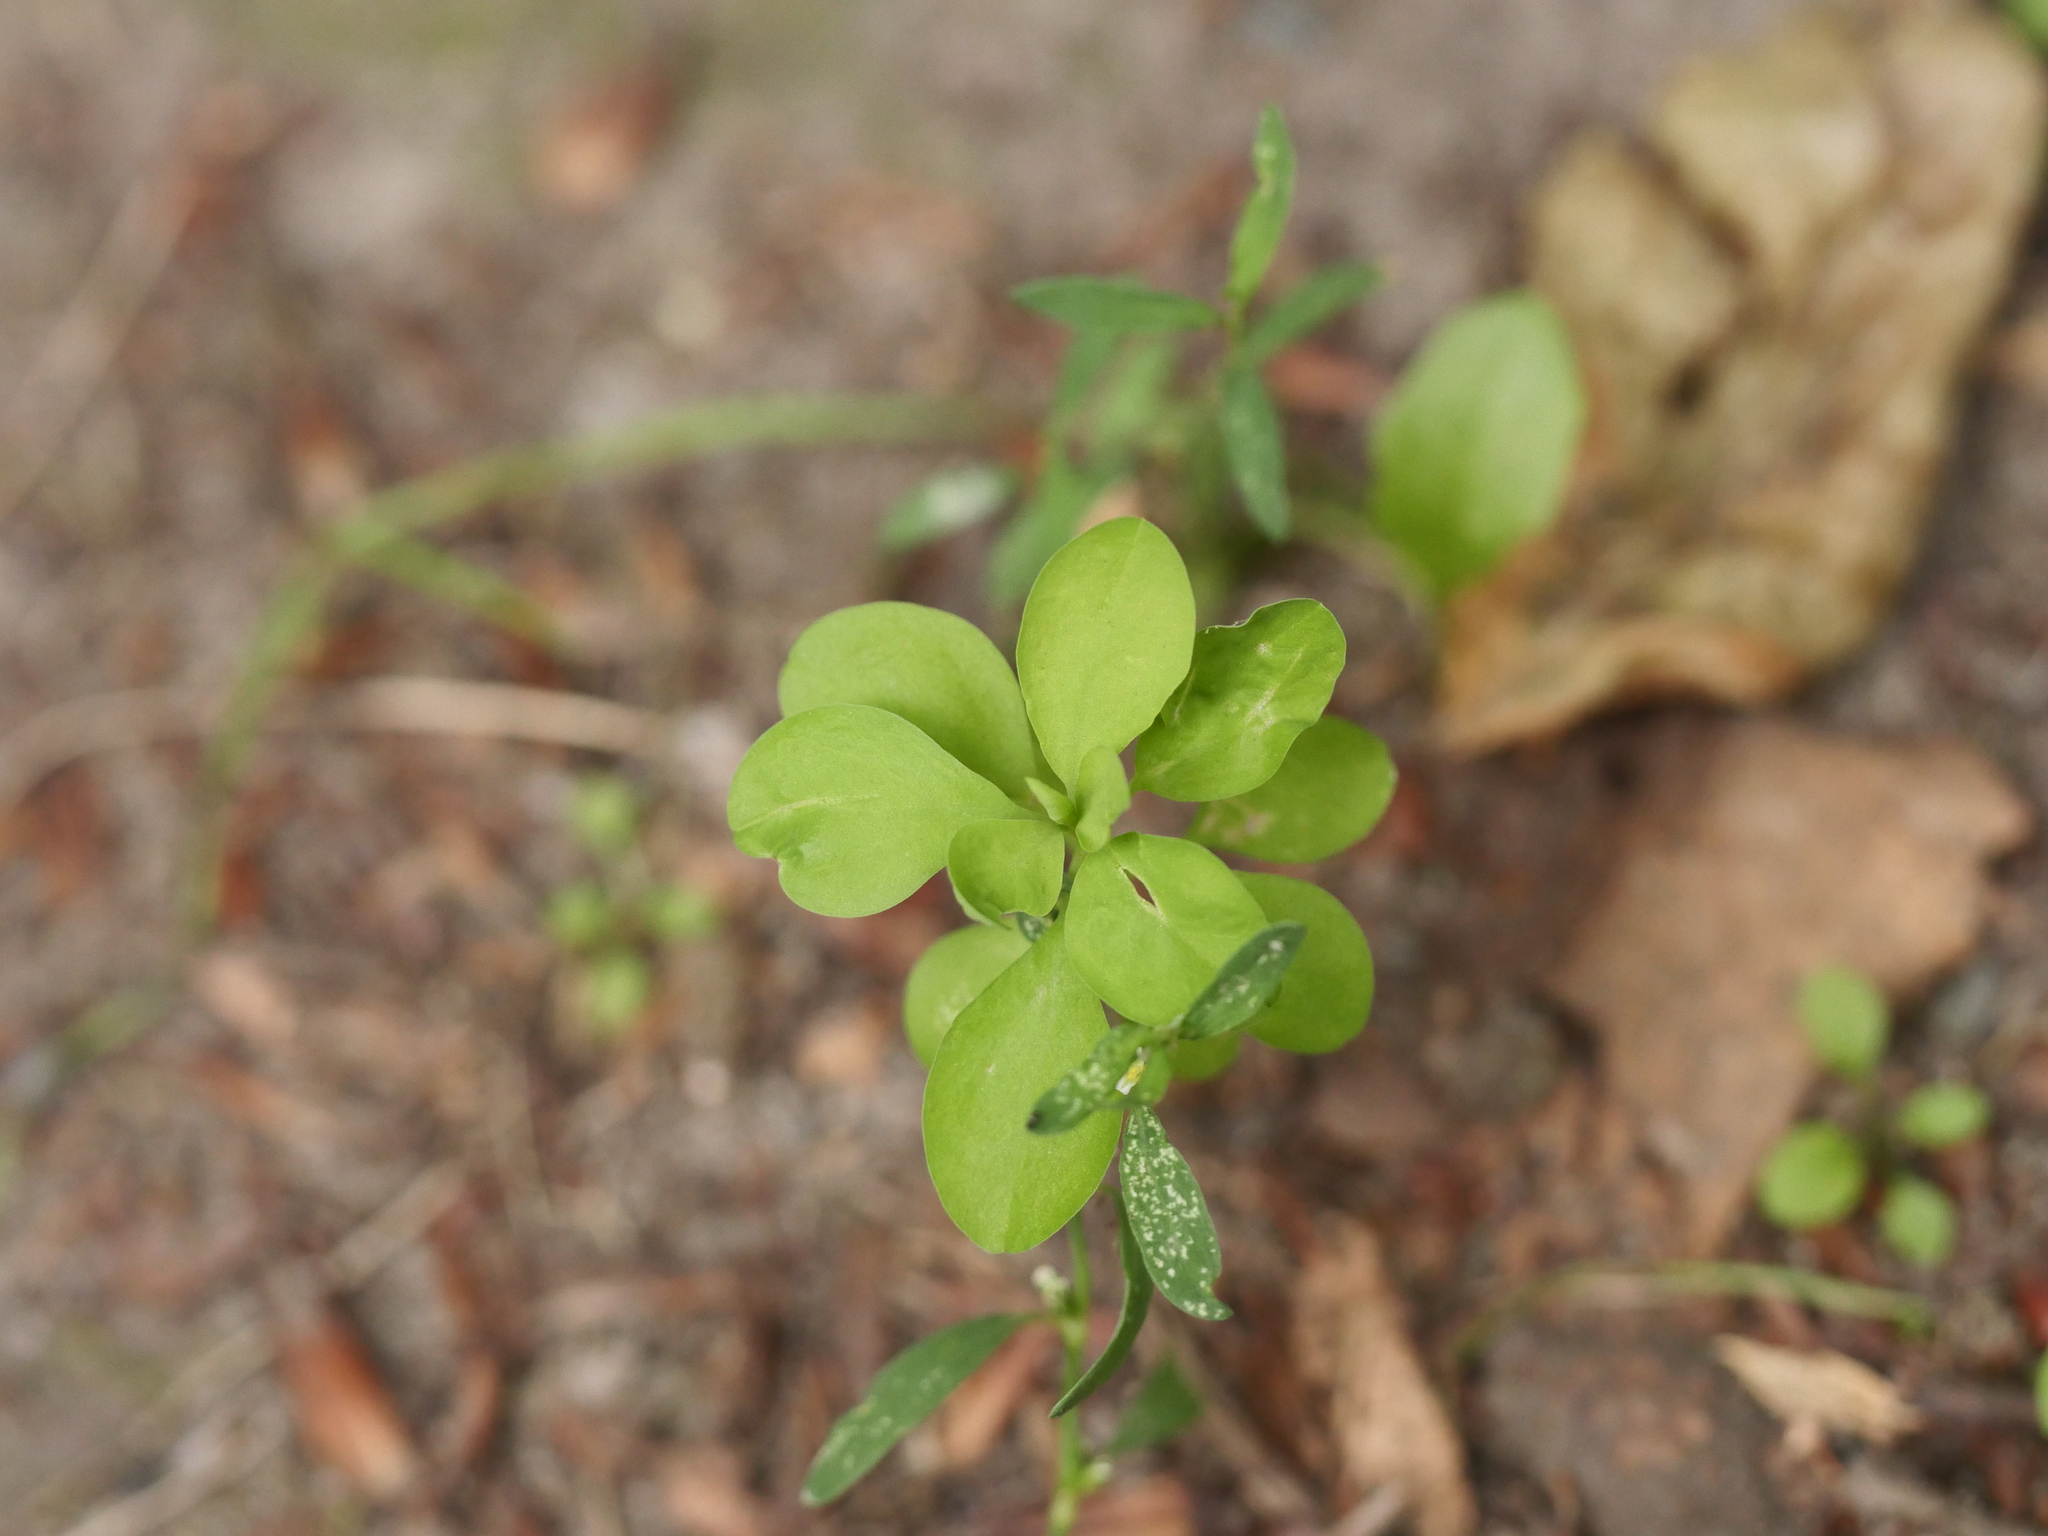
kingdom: Plantae
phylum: Tracheophyta
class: Magnoliopsida
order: Malpighiales
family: Euphorbiaceae
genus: Euphorbia
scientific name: Euphorbia peplus
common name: Petty spurge
